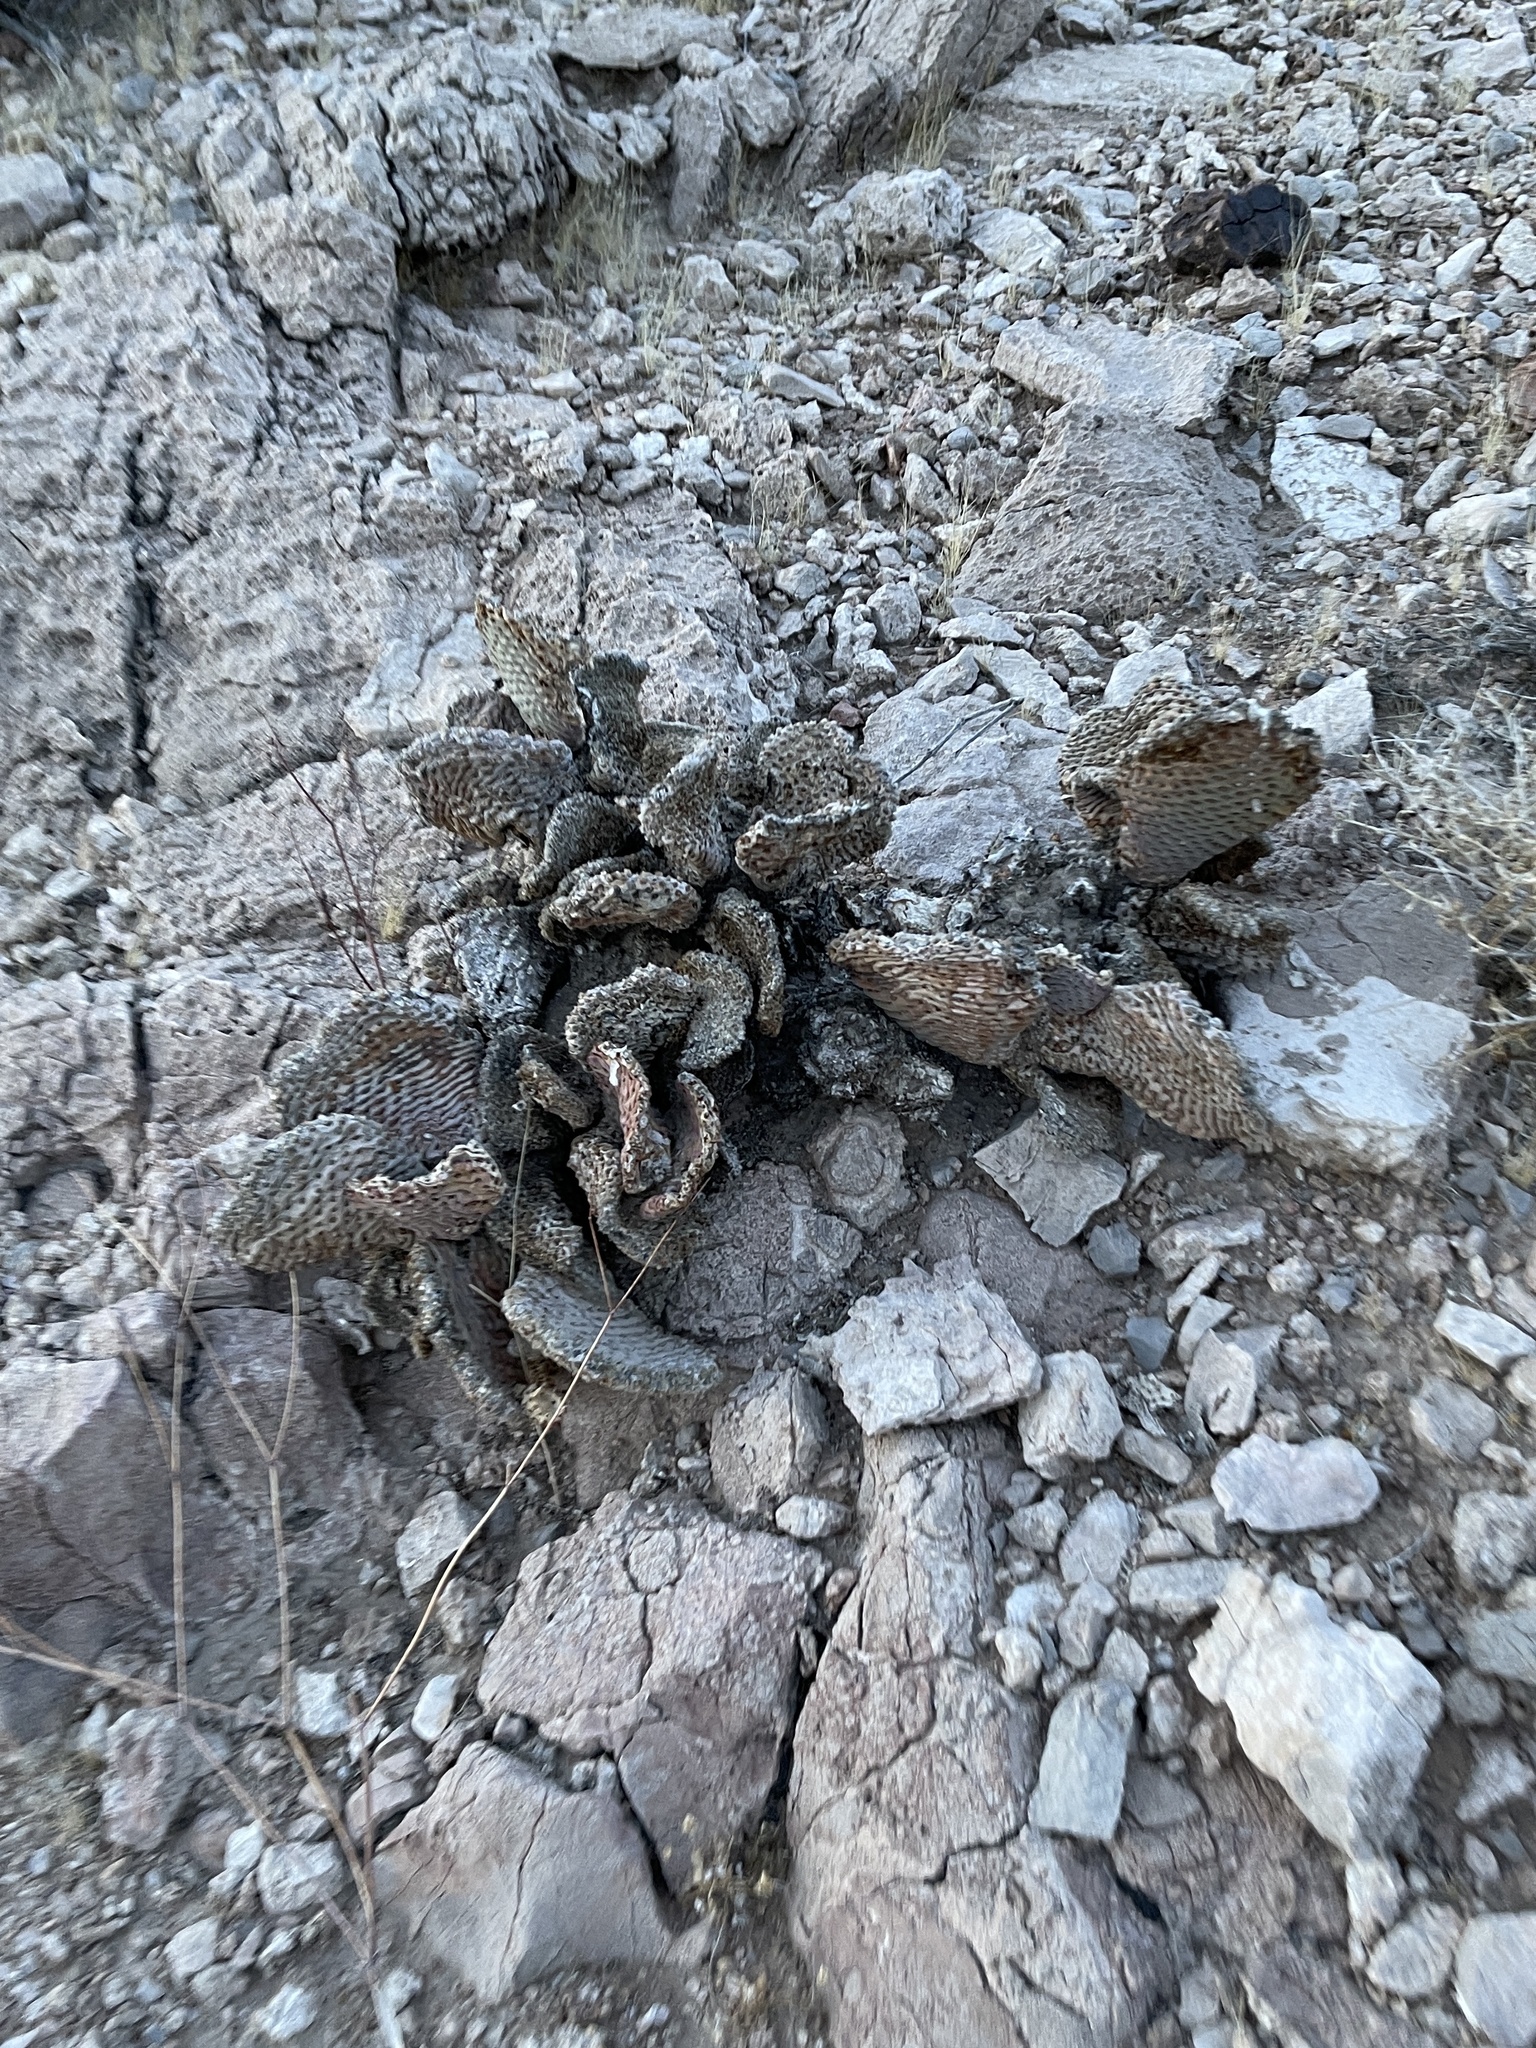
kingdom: Plantae
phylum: Tracheophyta
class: Magnoliopsida
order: Caryophyllales
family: Cactaceae
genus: Opuntia
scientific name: Opuntia basilaris
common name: Beavertail prickly-pear
